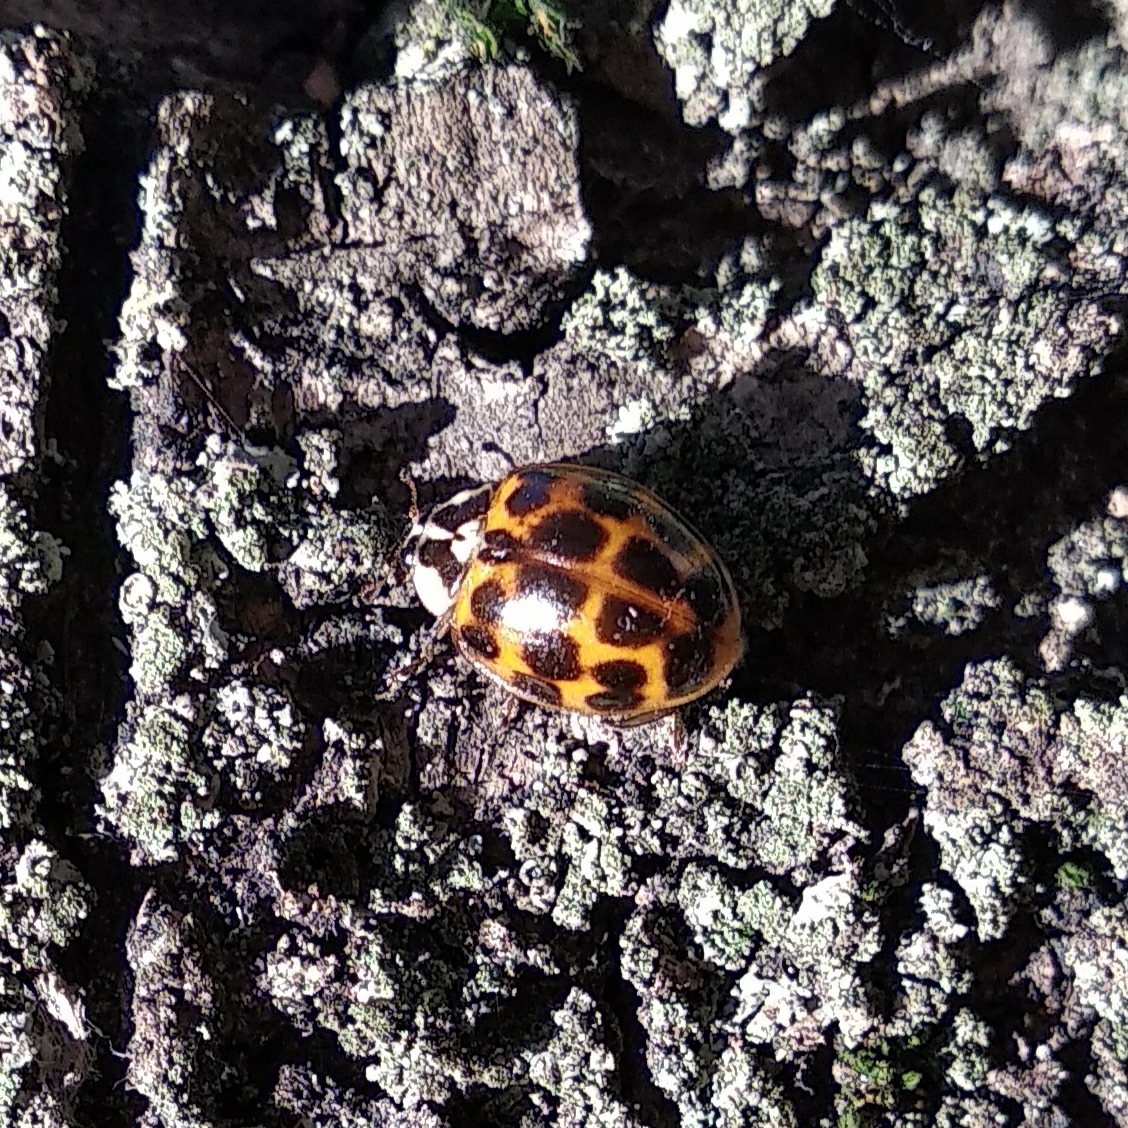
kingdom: Animalia
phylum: Arthropoda
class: Insecta
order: Coleoptera
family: Coccinellidae
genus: Harmonia
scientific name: Harmonia axyridis
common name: Harlequin ladybird
